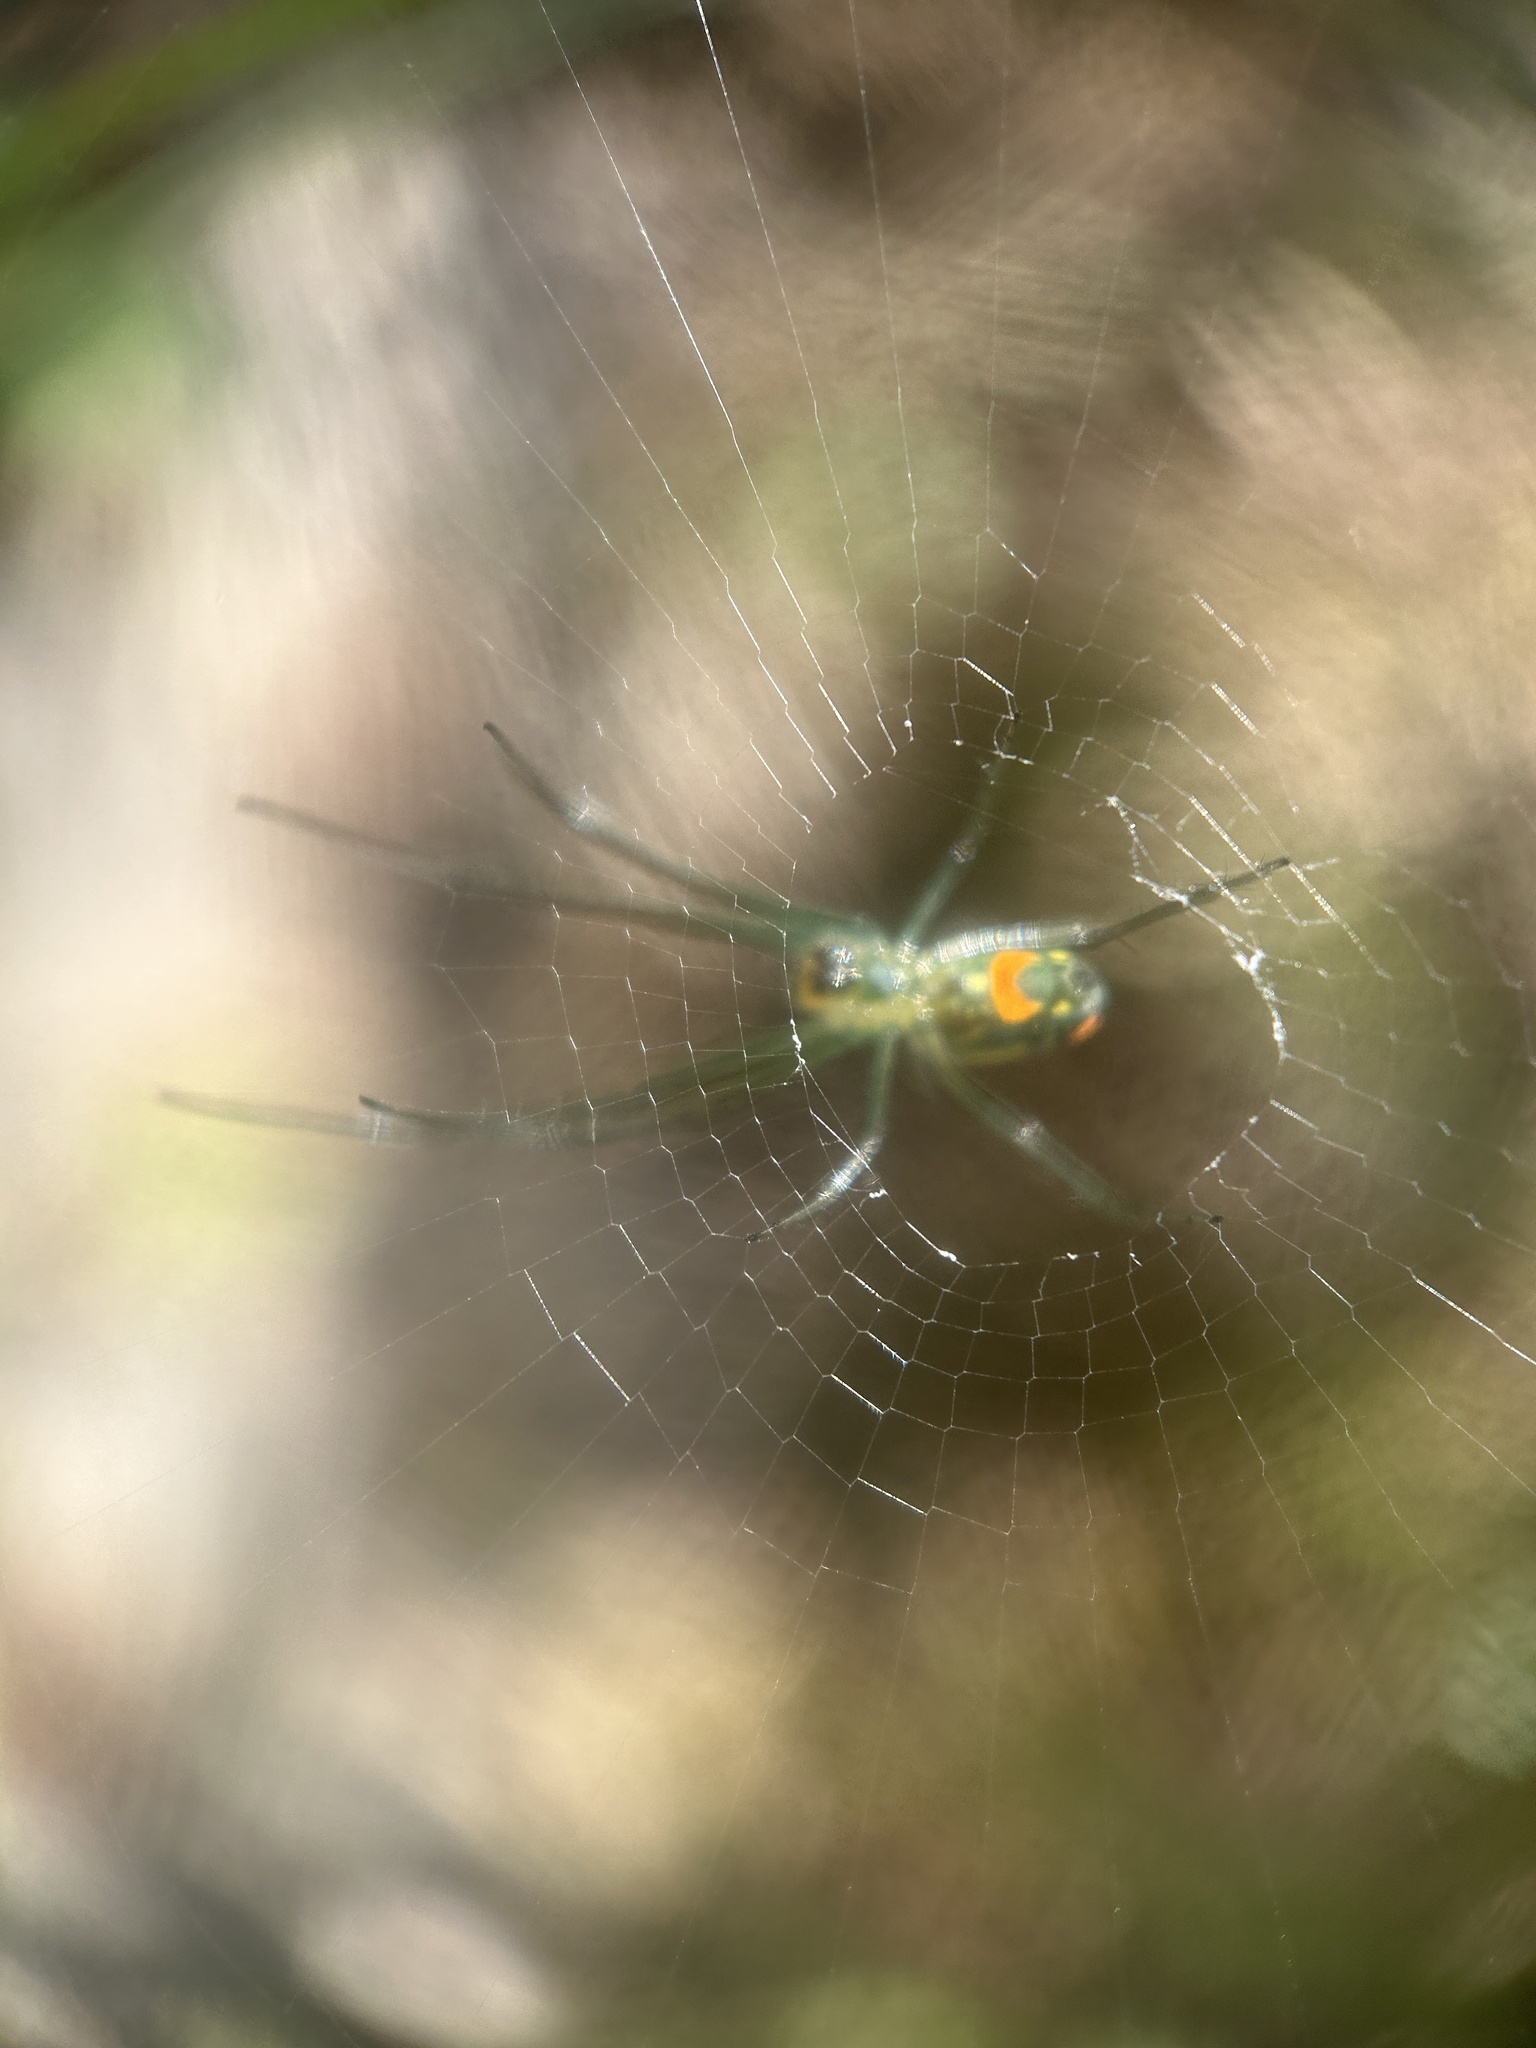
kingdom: Animalia
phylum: Arthropoda
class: Maxillopoda
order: Pedunculata
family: Lepadidae
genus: Lepas
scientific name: Lepas anserifera
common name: Goose barnacle
